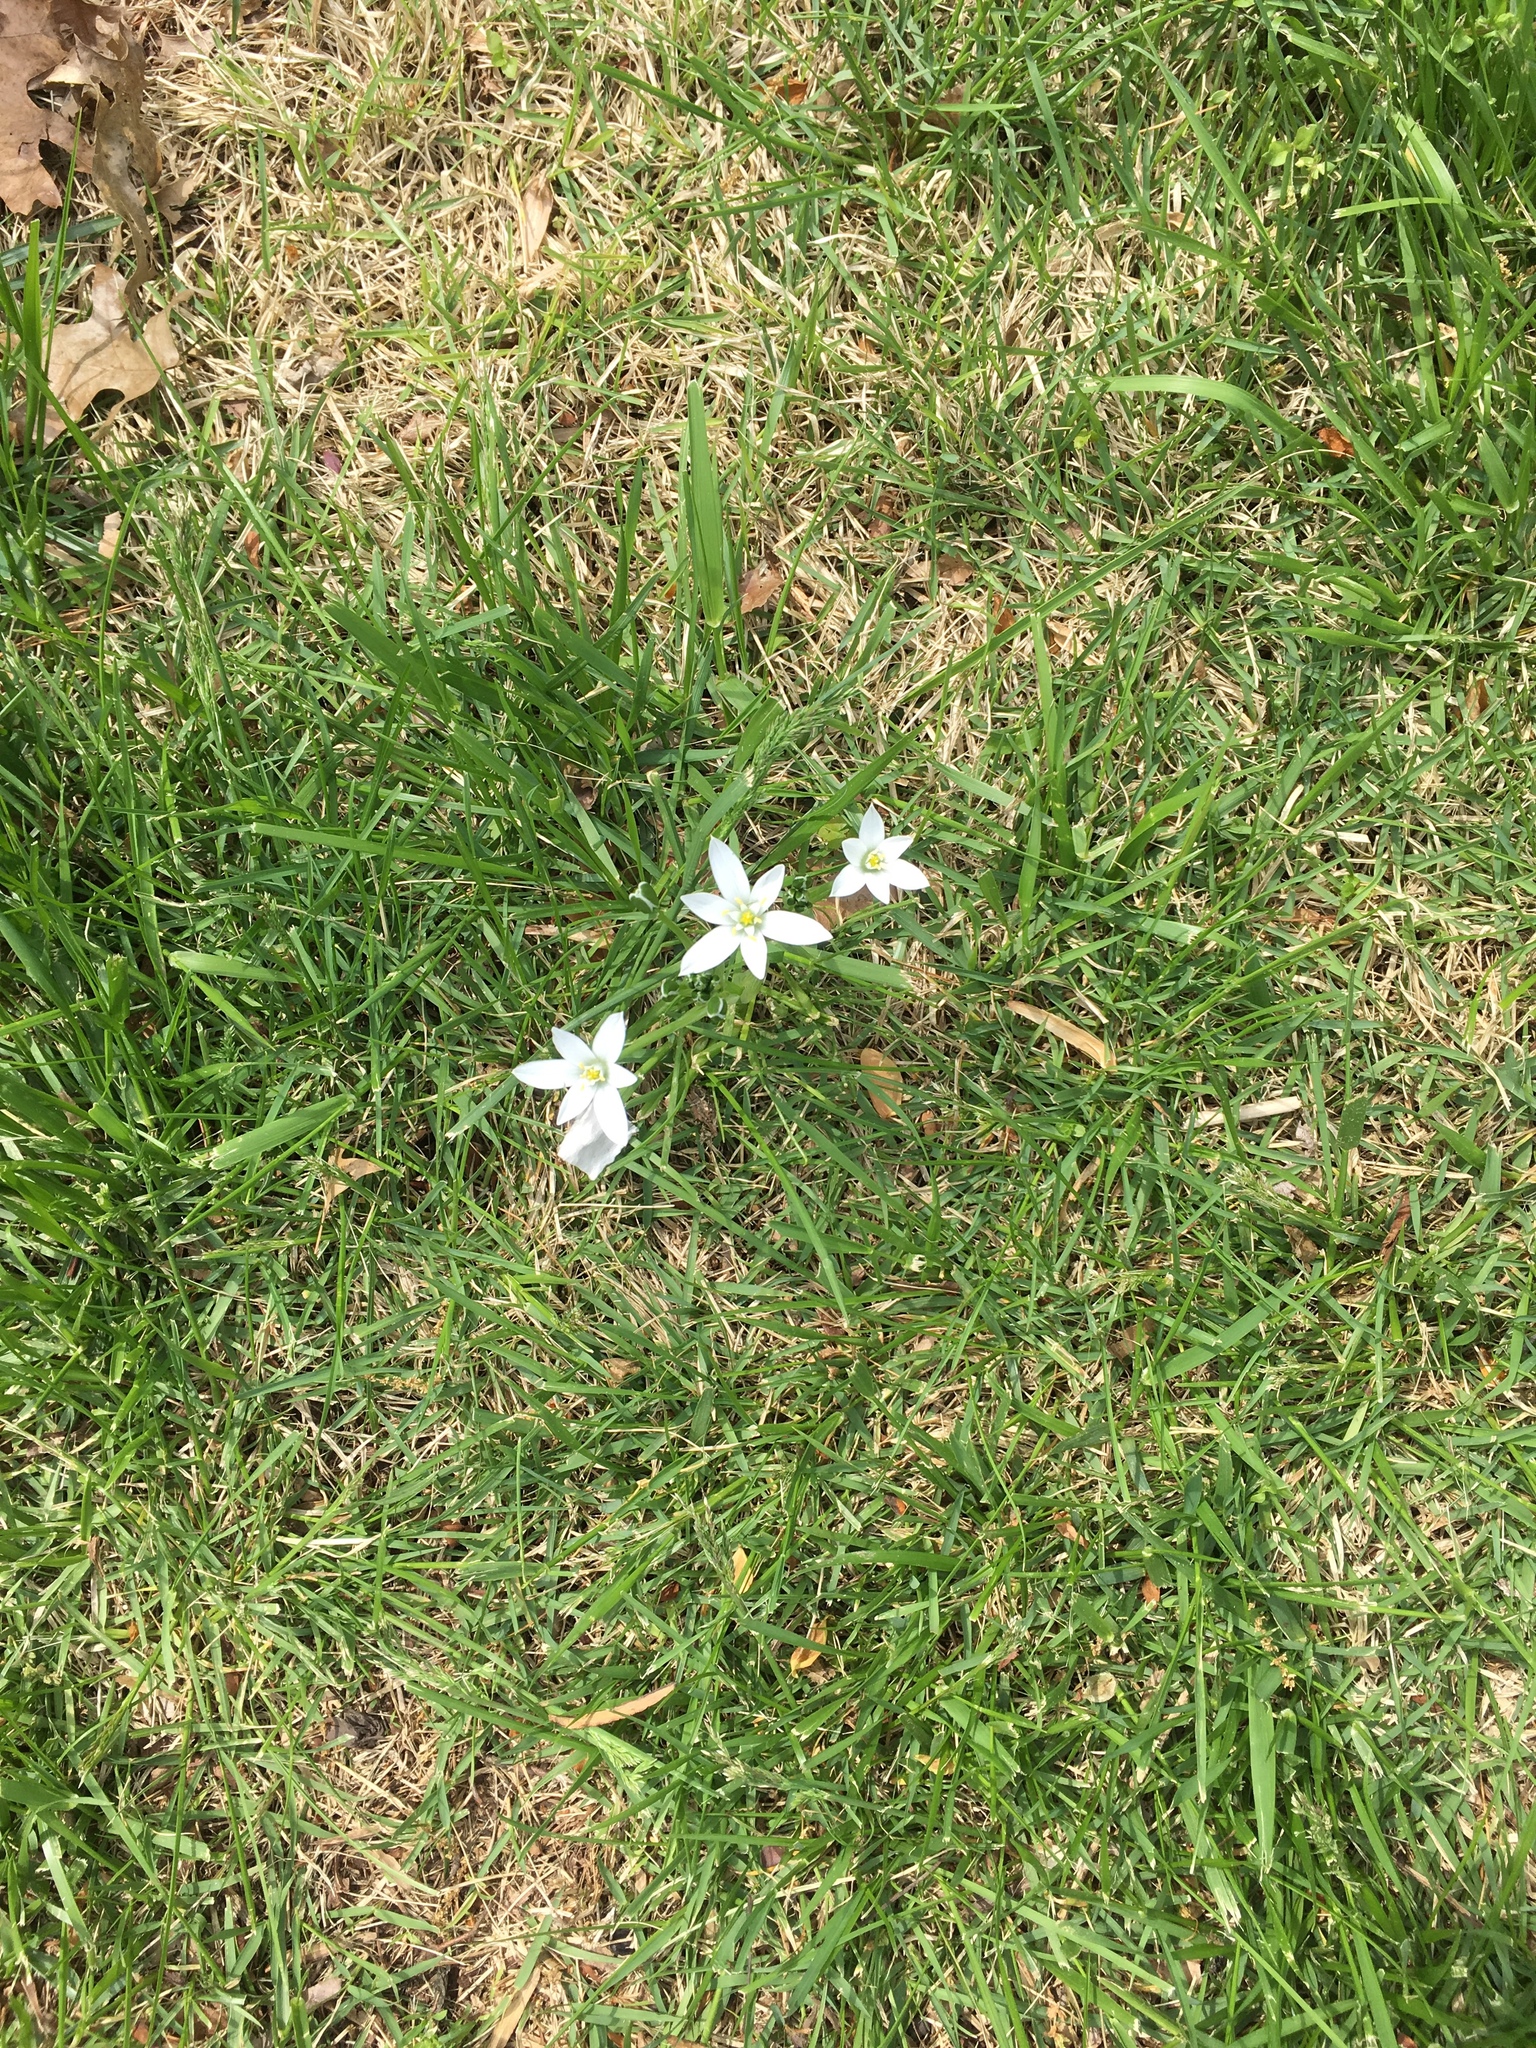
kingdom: Plantae
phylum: Tracheophyta
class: Liliopsida
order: Asparagales
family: Asparagaceae
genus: Ornithogalum
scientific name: Ornithogalum umbellatum
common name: Garden star-of-bethlehem
